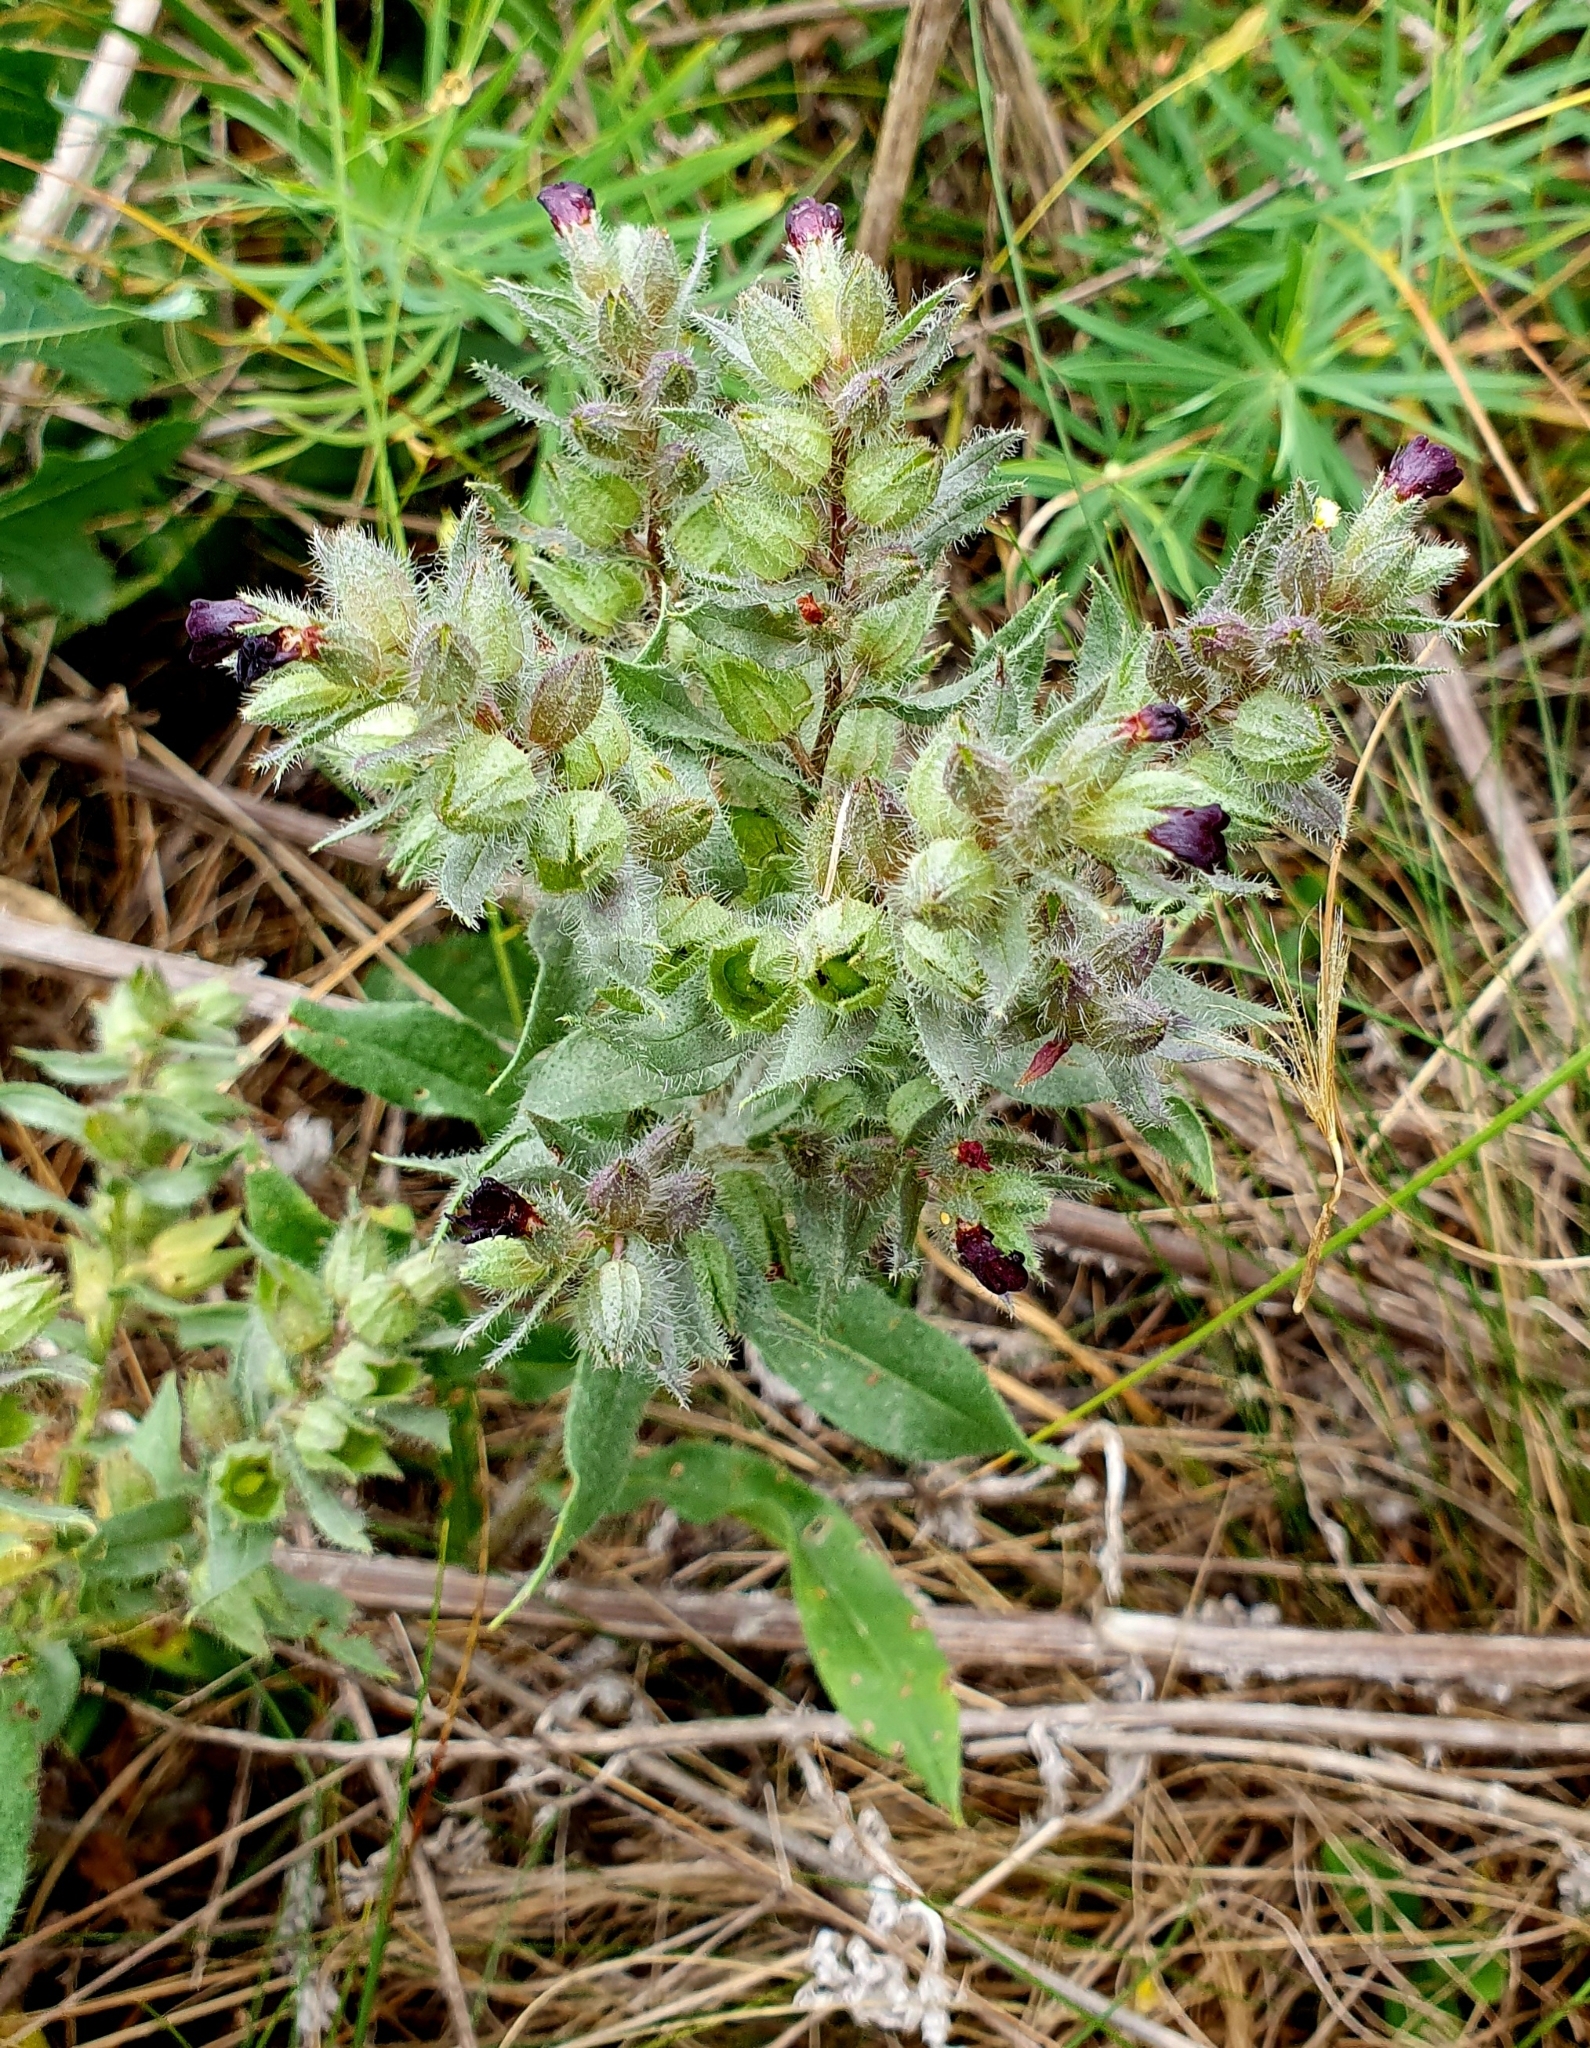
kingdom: Plantae
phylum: Tracheophyta
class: Magnoliopsida
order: Boraginales
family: Boraginaceae
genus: Nonea
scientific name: Nonea pulla
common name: Brown nonea
